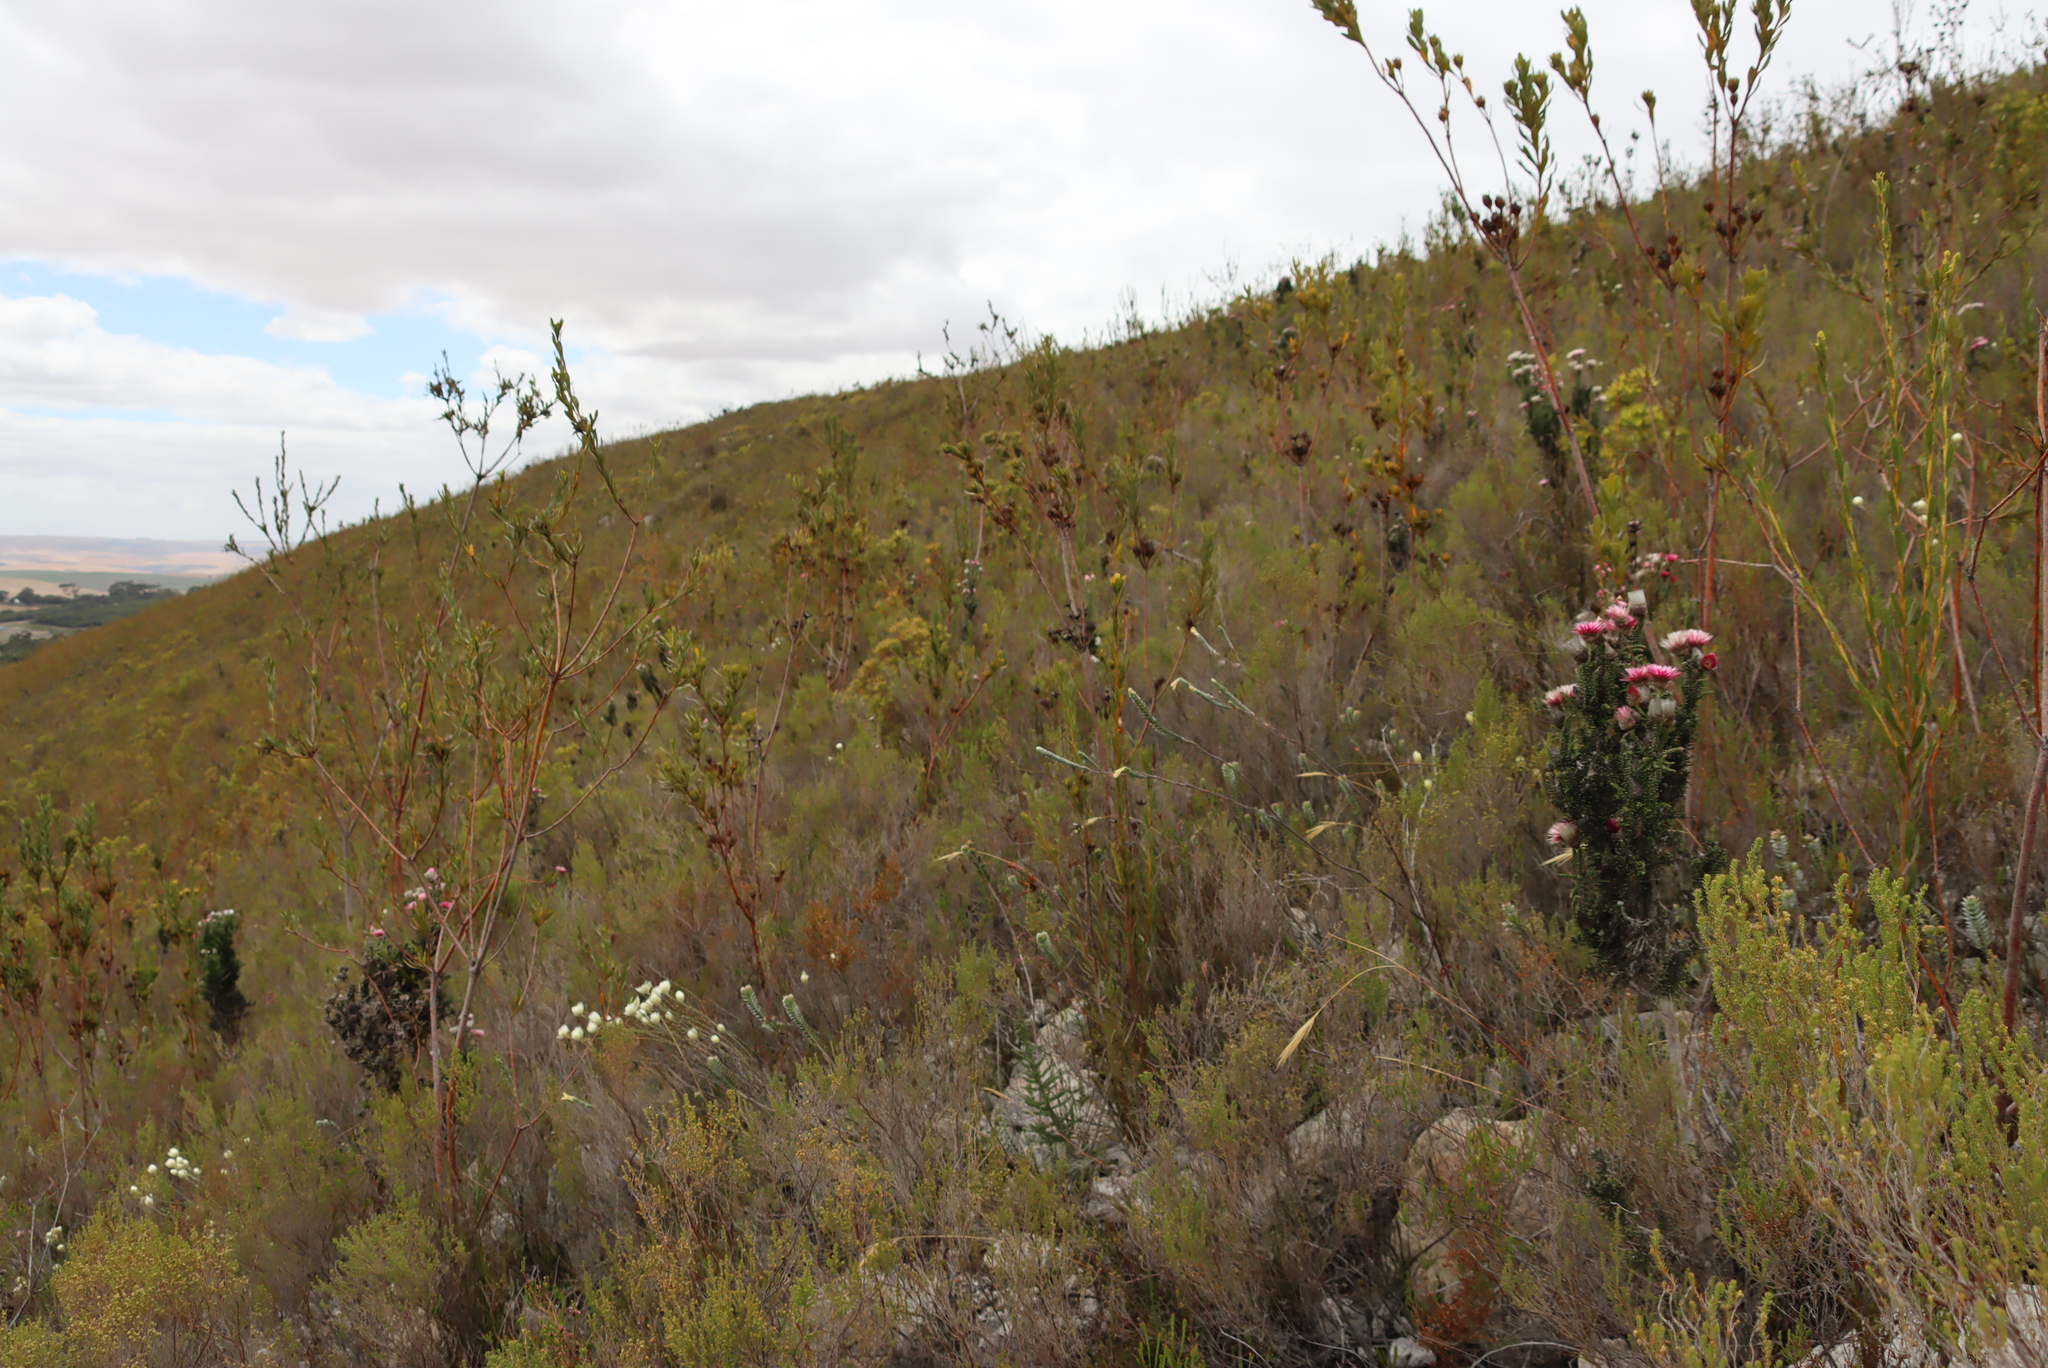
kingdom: Plantae
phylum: Tracheophyta
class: Magnoliopsida
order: Malvales
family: Thymelaeaceae
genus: Gnidia
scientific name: Gnidia anomala
